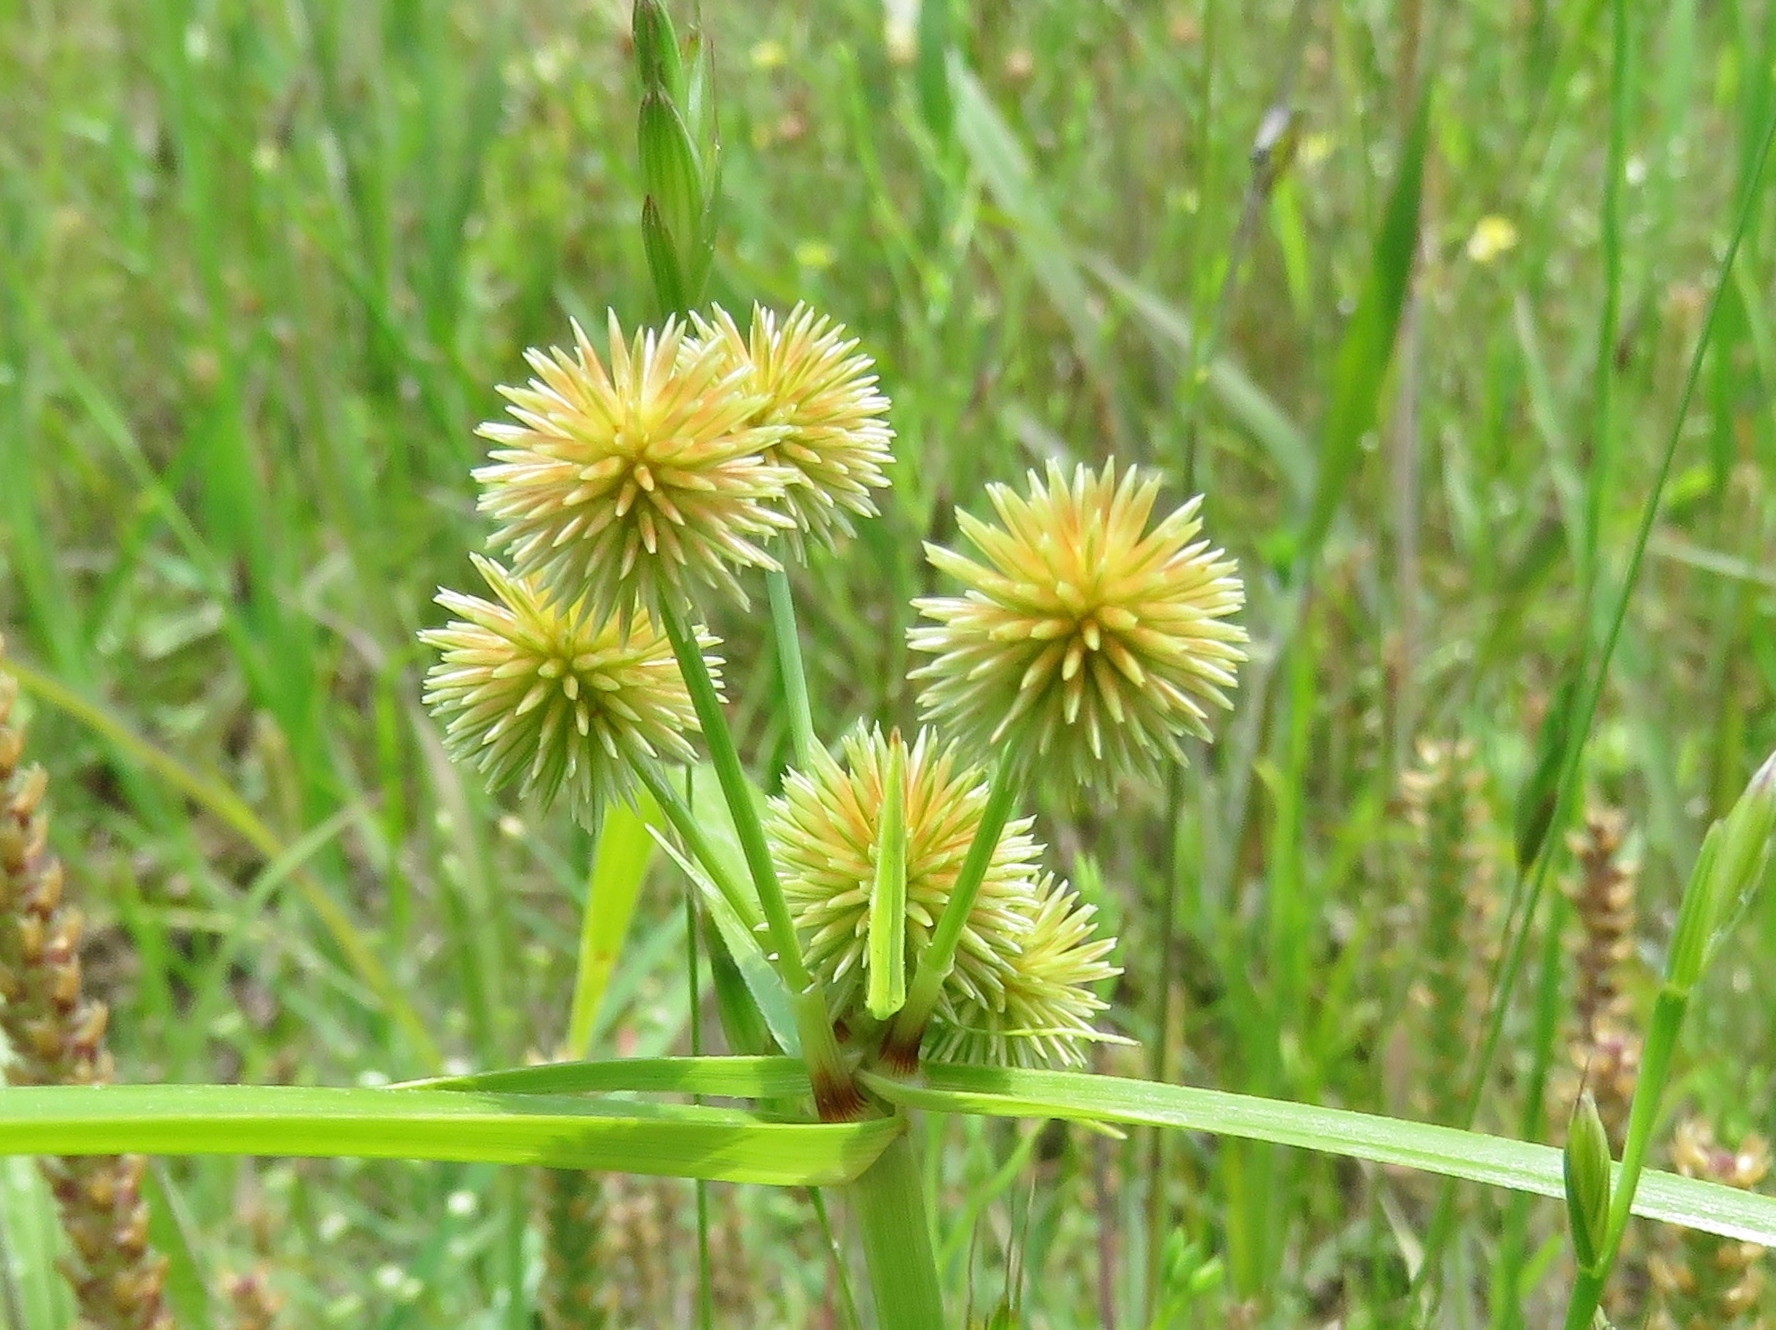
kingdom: Plantae
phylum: Tracheophyta
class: Liliopsida
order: Poales
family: Cyperaceae
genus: Cyperus
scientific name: Cyperus echinatus
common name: Teasel sedge
